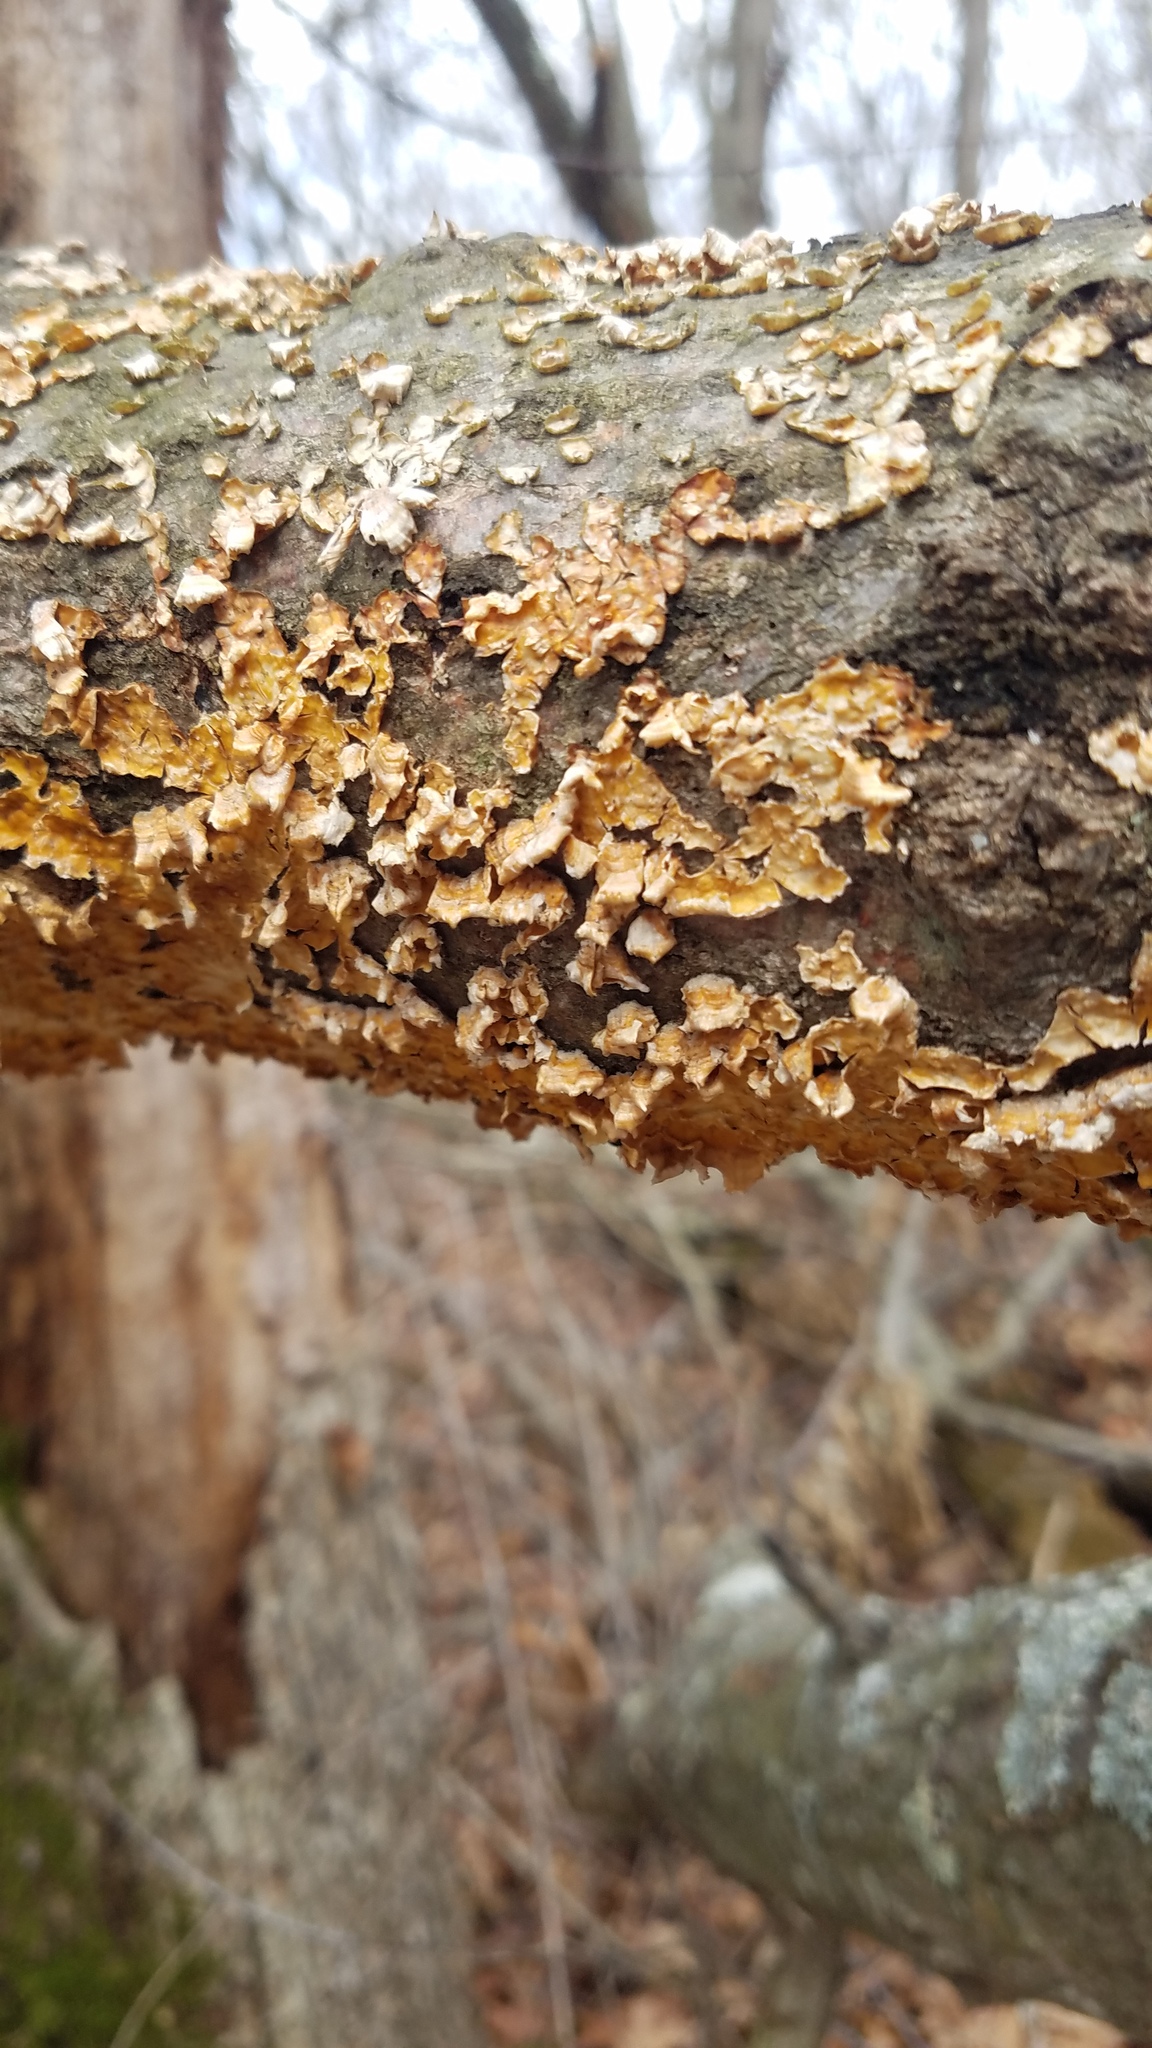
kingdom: Fungi
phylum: Basidiomycota
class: Agaricomycetes
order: Russulales
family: Stereaceae
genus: Stereum
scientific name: Stereum complicatum
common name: Crowded parchment
